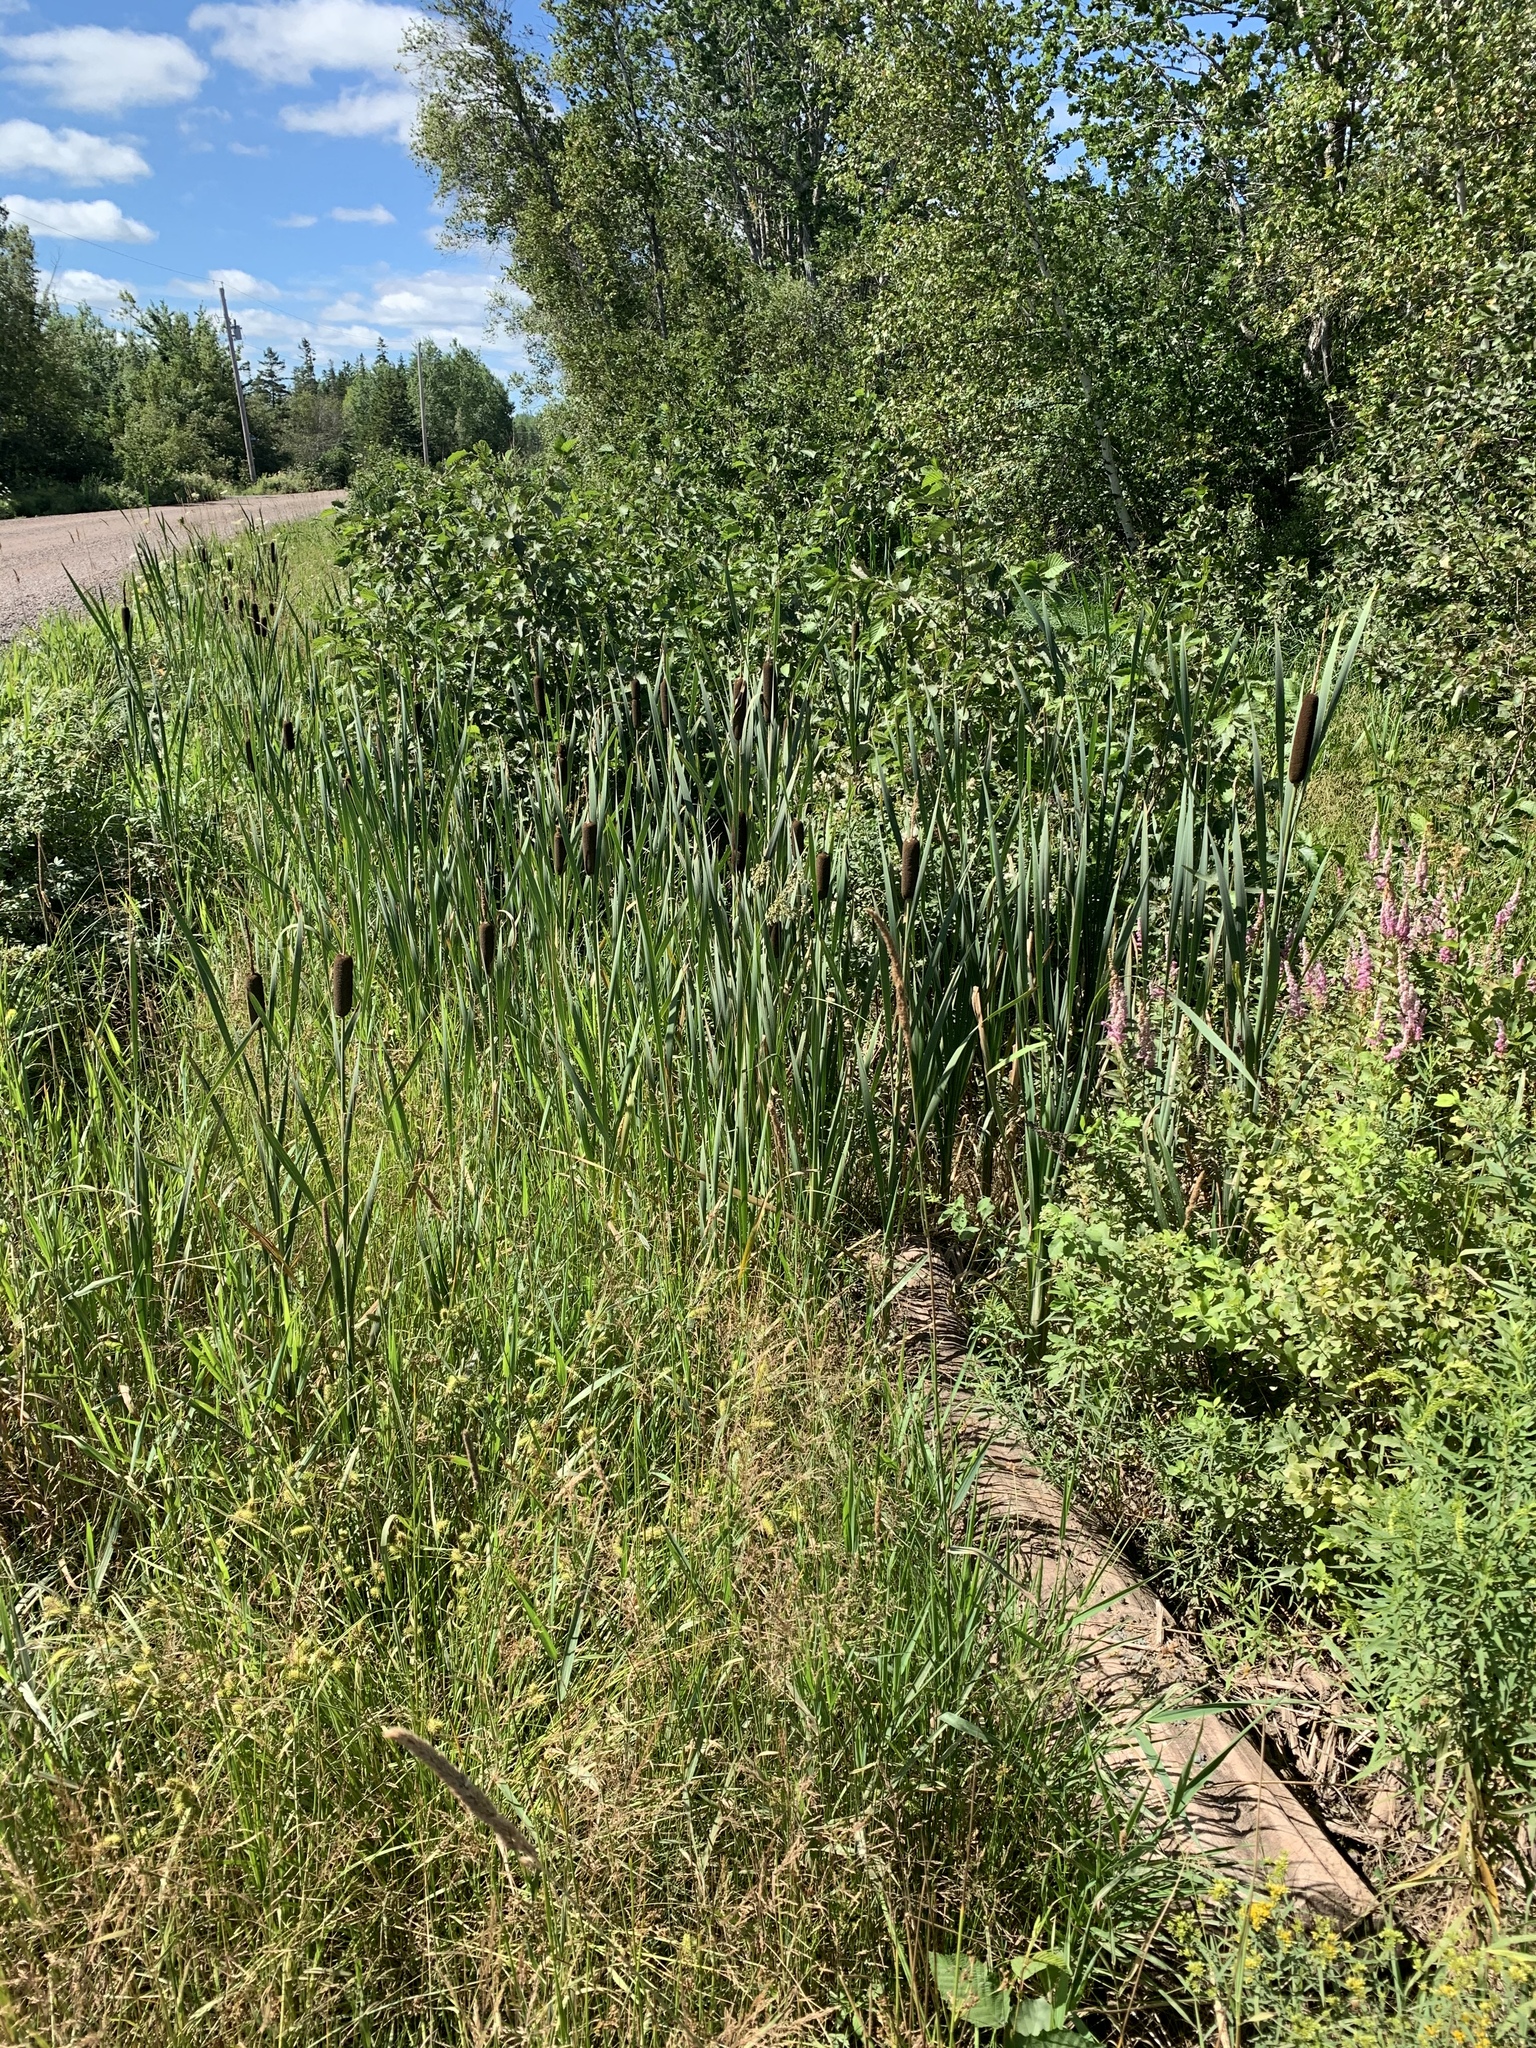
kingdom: Plantae
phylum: Tracheophyta
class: Liliopsida
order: Poales
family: Typhaceae
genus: Typha
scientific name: Typha latifolia
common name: Broadleaf cattail
